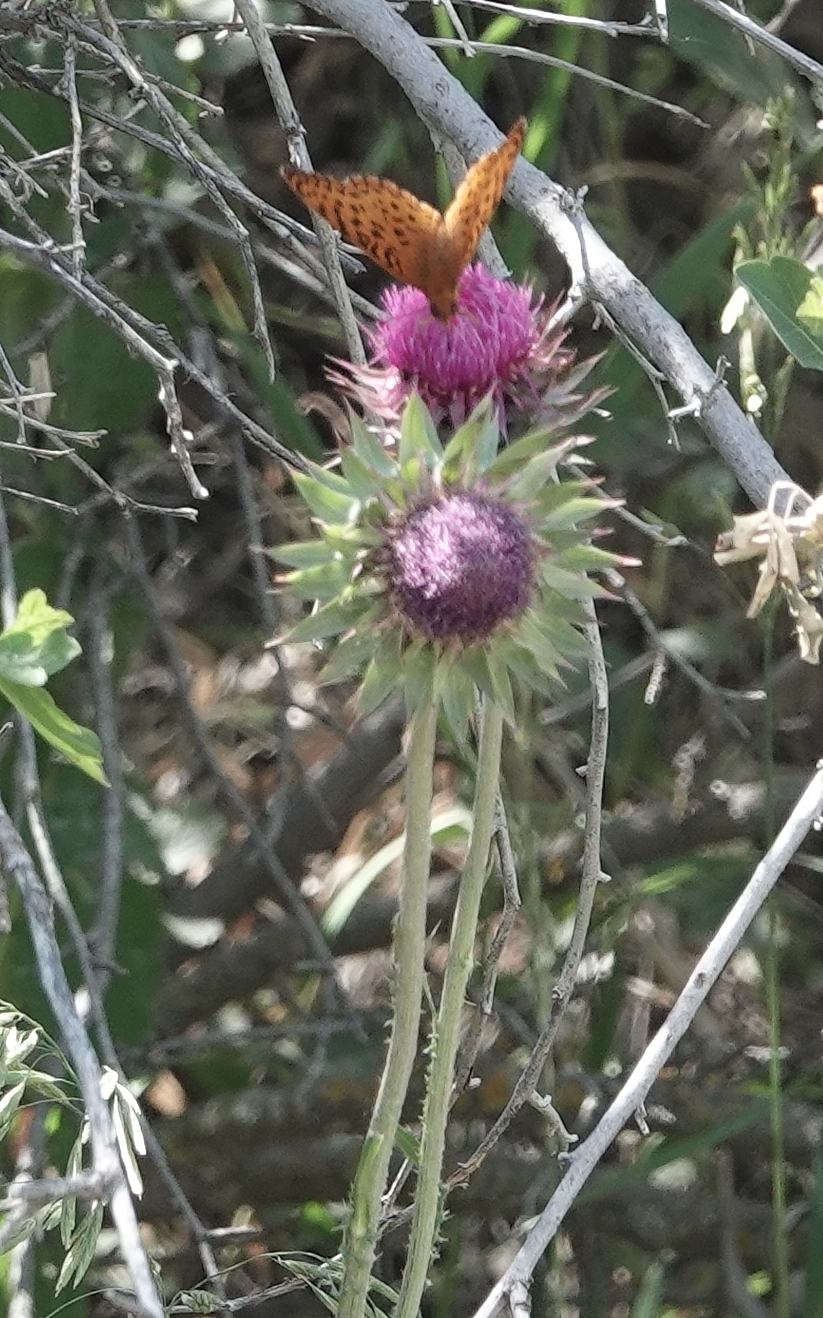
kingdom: Animalia
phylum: Arthropoda
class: Insecta
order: Lepidoptera
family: Nymphalidae
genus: Speyeria
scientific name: Speyeria aphrodite
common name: Aphrodite friitllary
